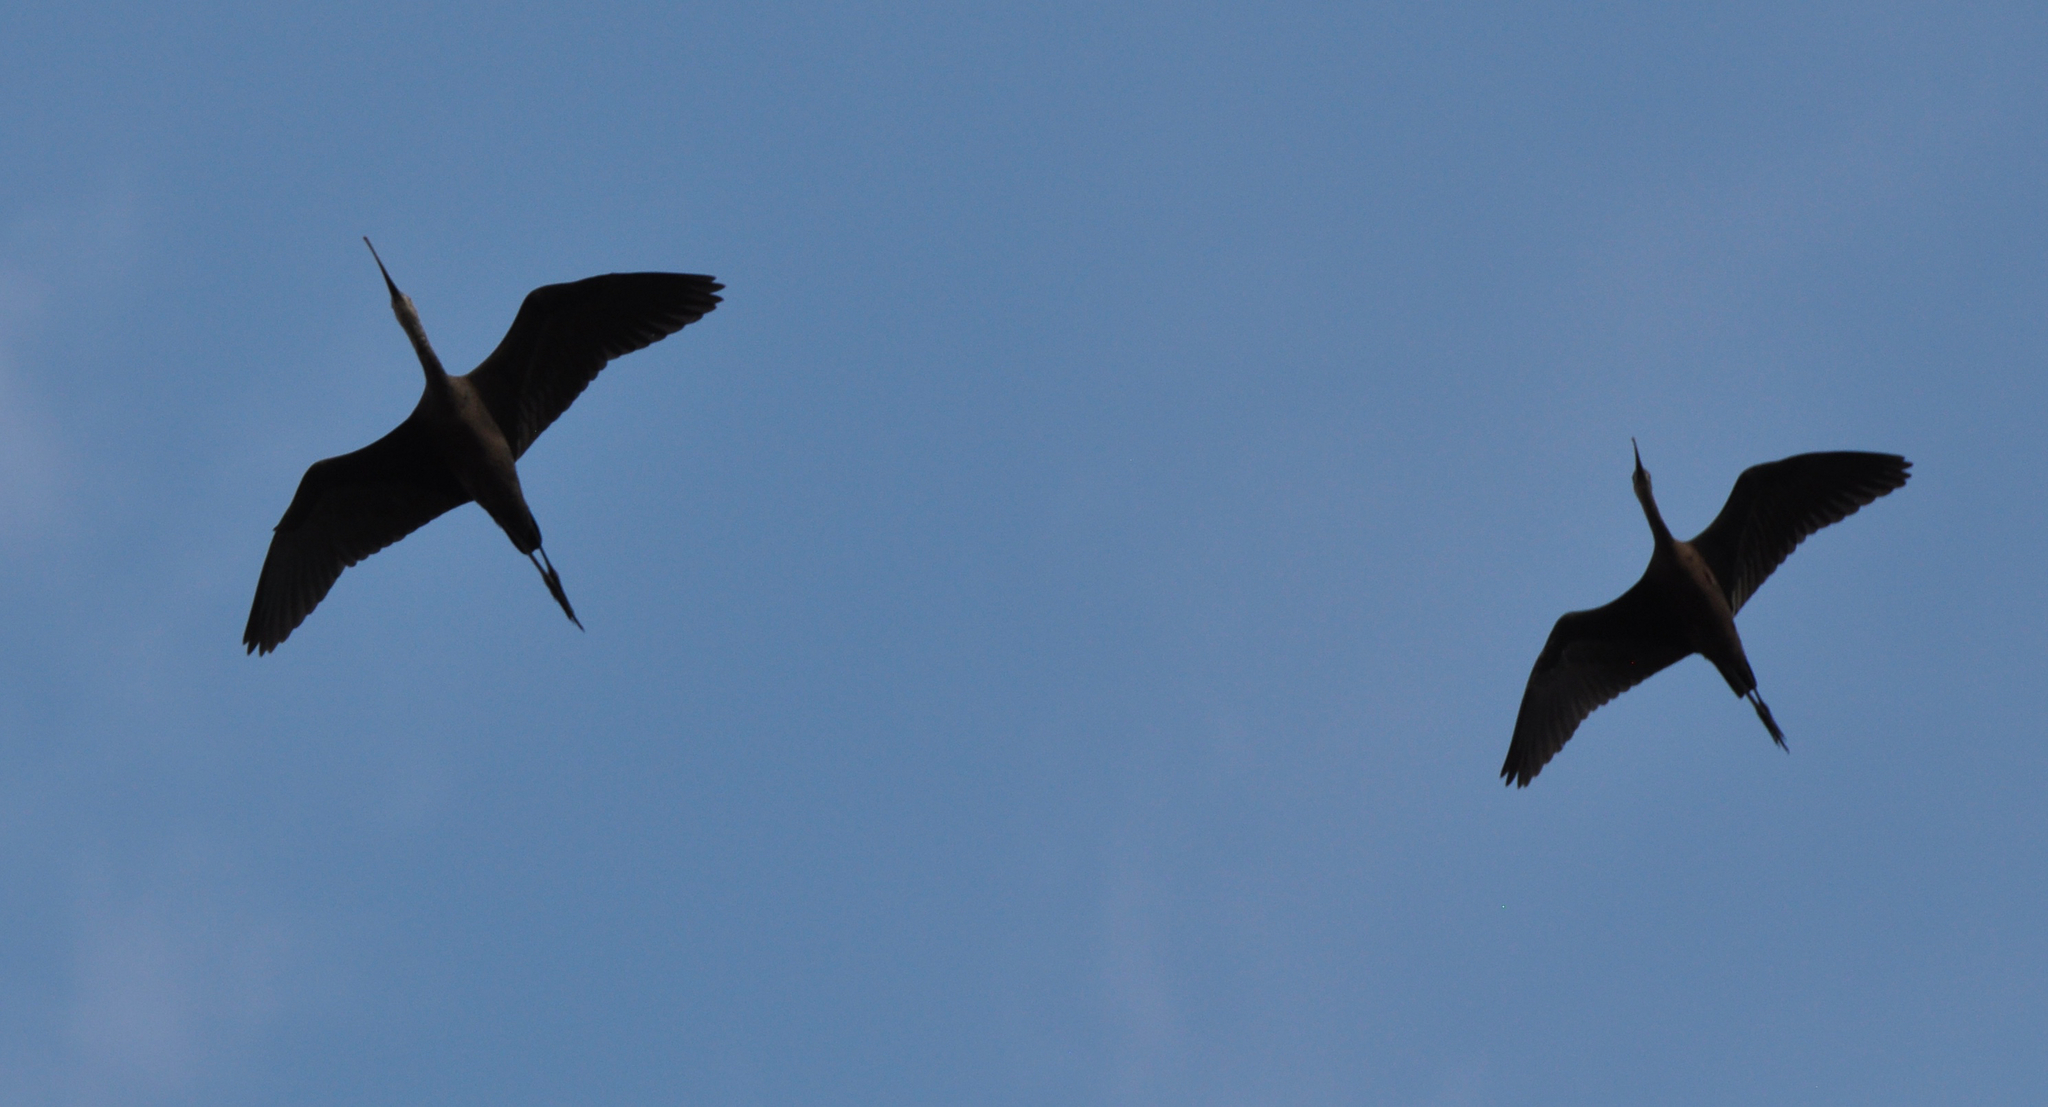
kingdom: Animalia
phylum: Chordata
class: Aves
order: Pelecaniformes
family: Threskiornithidae
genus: Plegadis
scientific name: Plegadis chihi
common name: White-faced ibis
